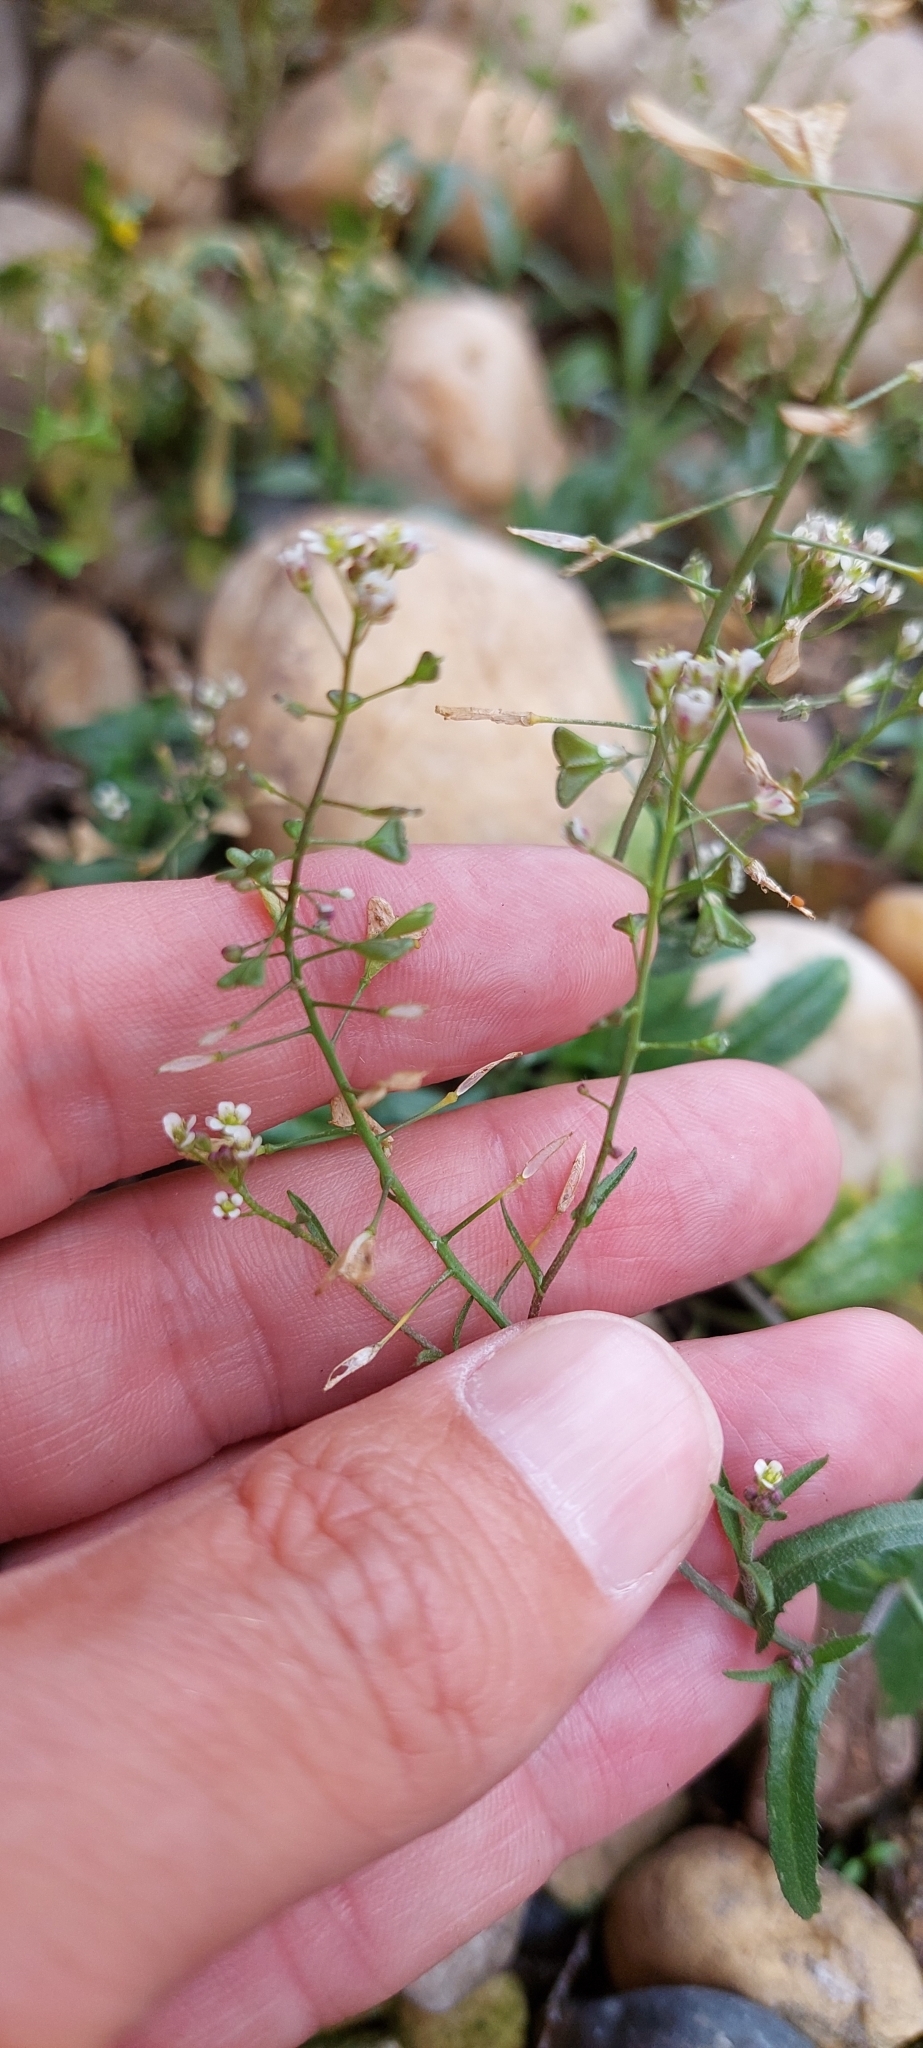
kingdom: Plantae
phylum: Tracheophyta
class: Magnoliopsida
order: Brassicales
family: Brassicaceae
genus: Capsella
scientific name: Capsella bursa-pastoris
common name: Shepherd's purse
